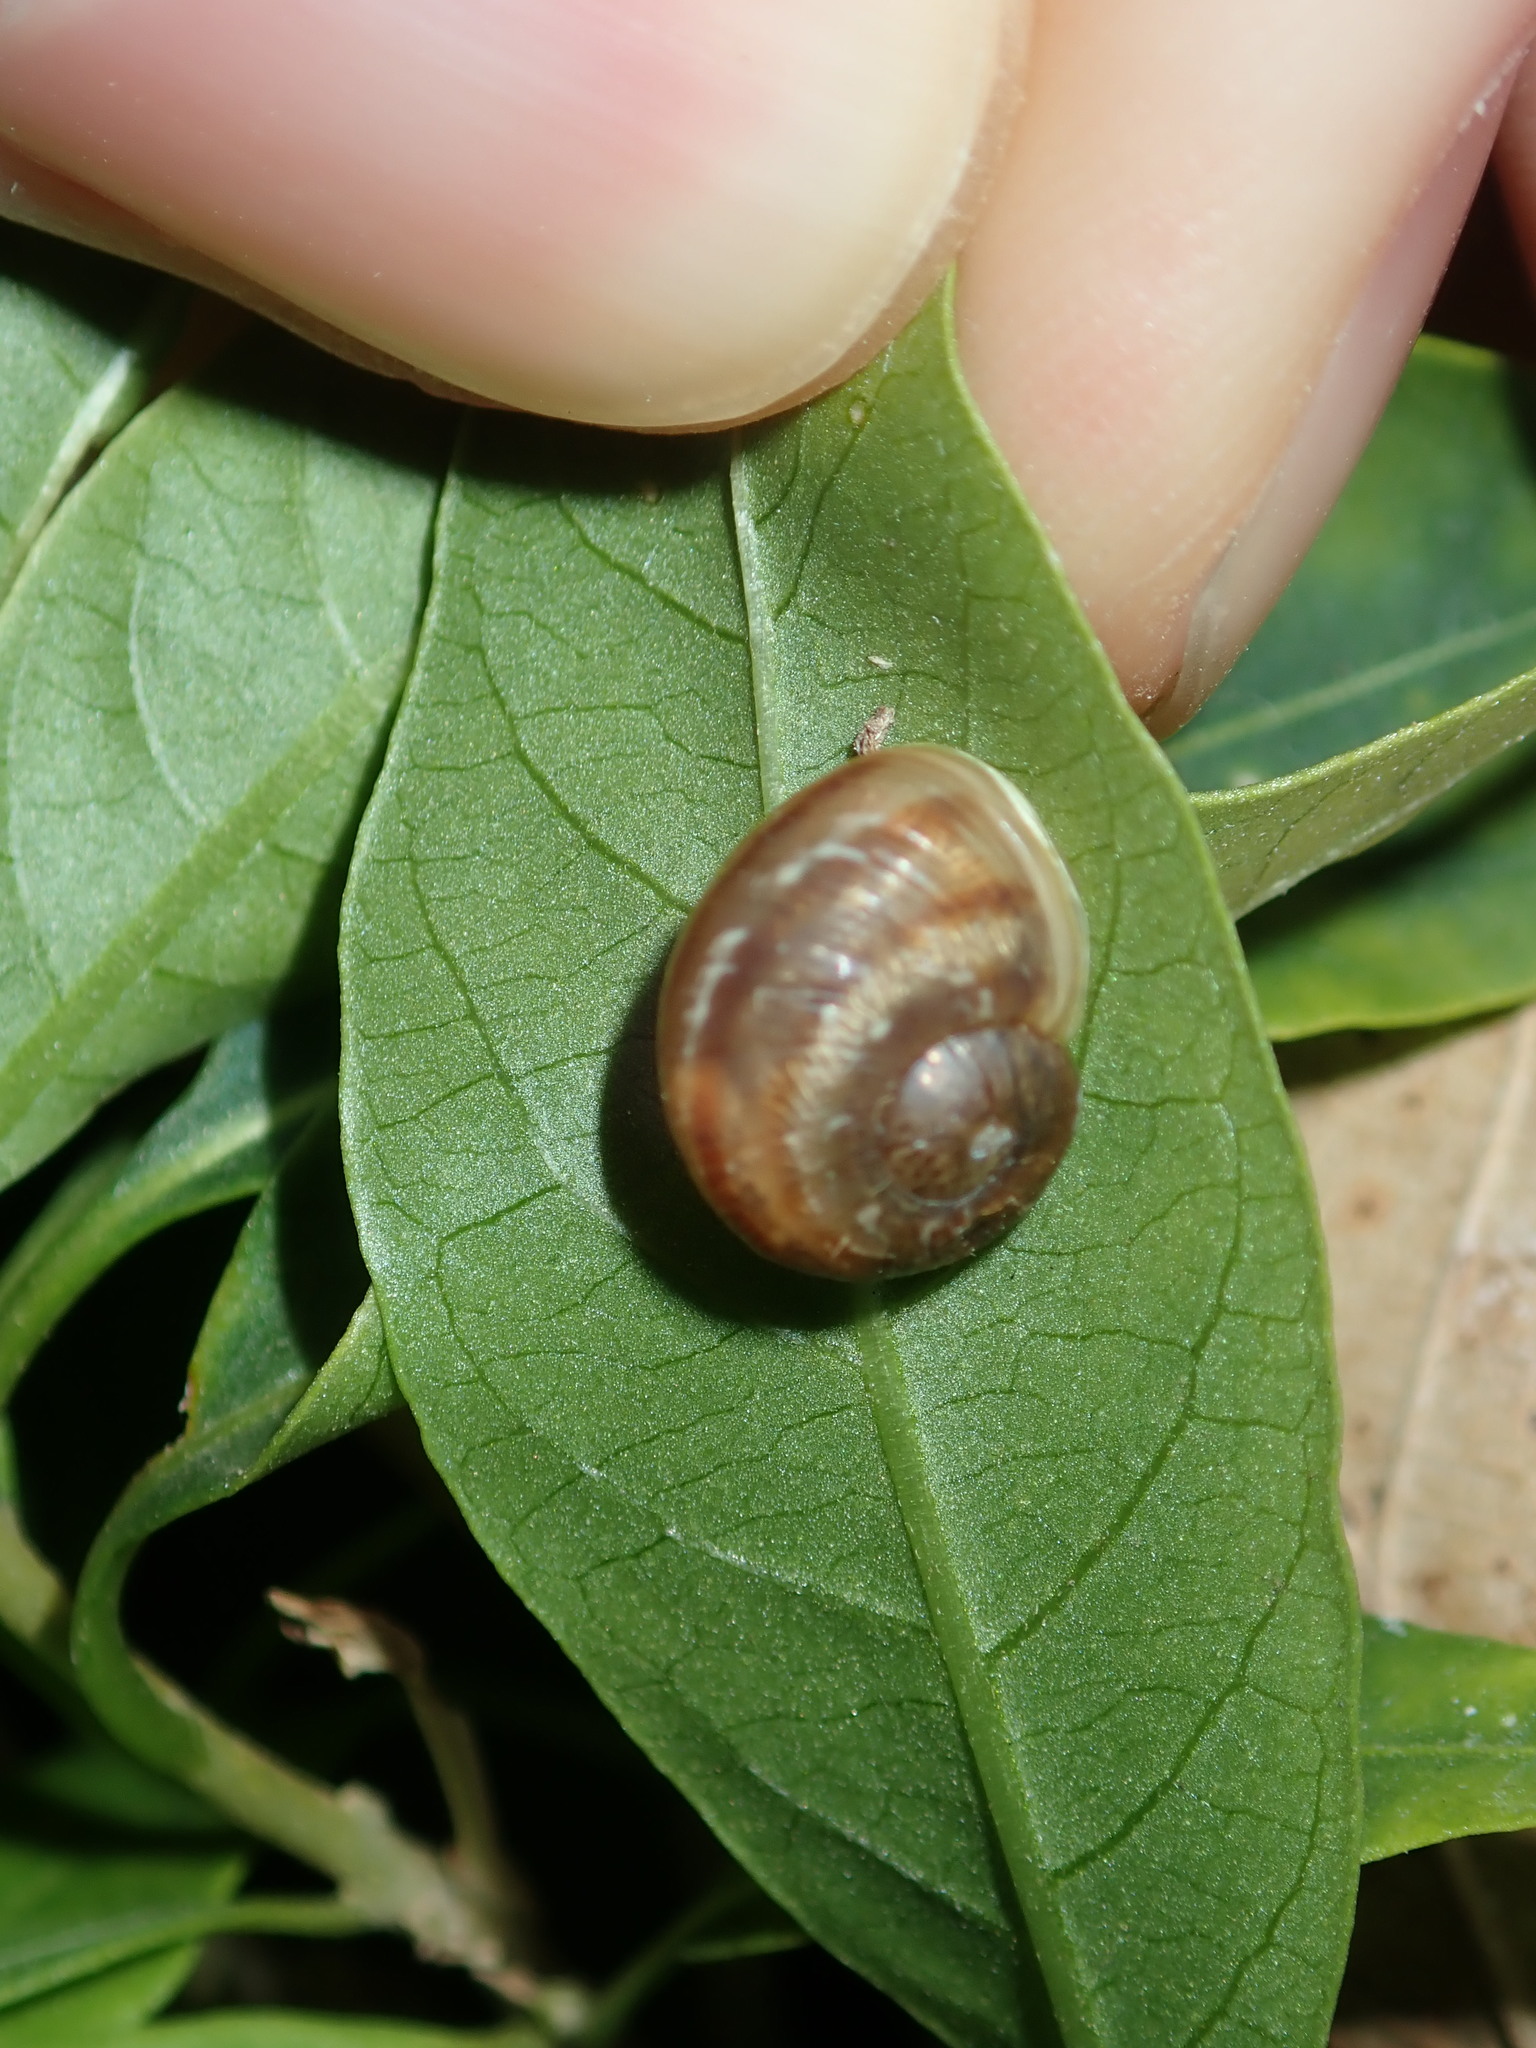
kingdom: Animalia
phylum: Mollusca
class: Gastropoda
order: Stylommatophora
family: Helicidae
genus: Cornu
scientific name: Cornu aspersum
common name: Brown garden snail
